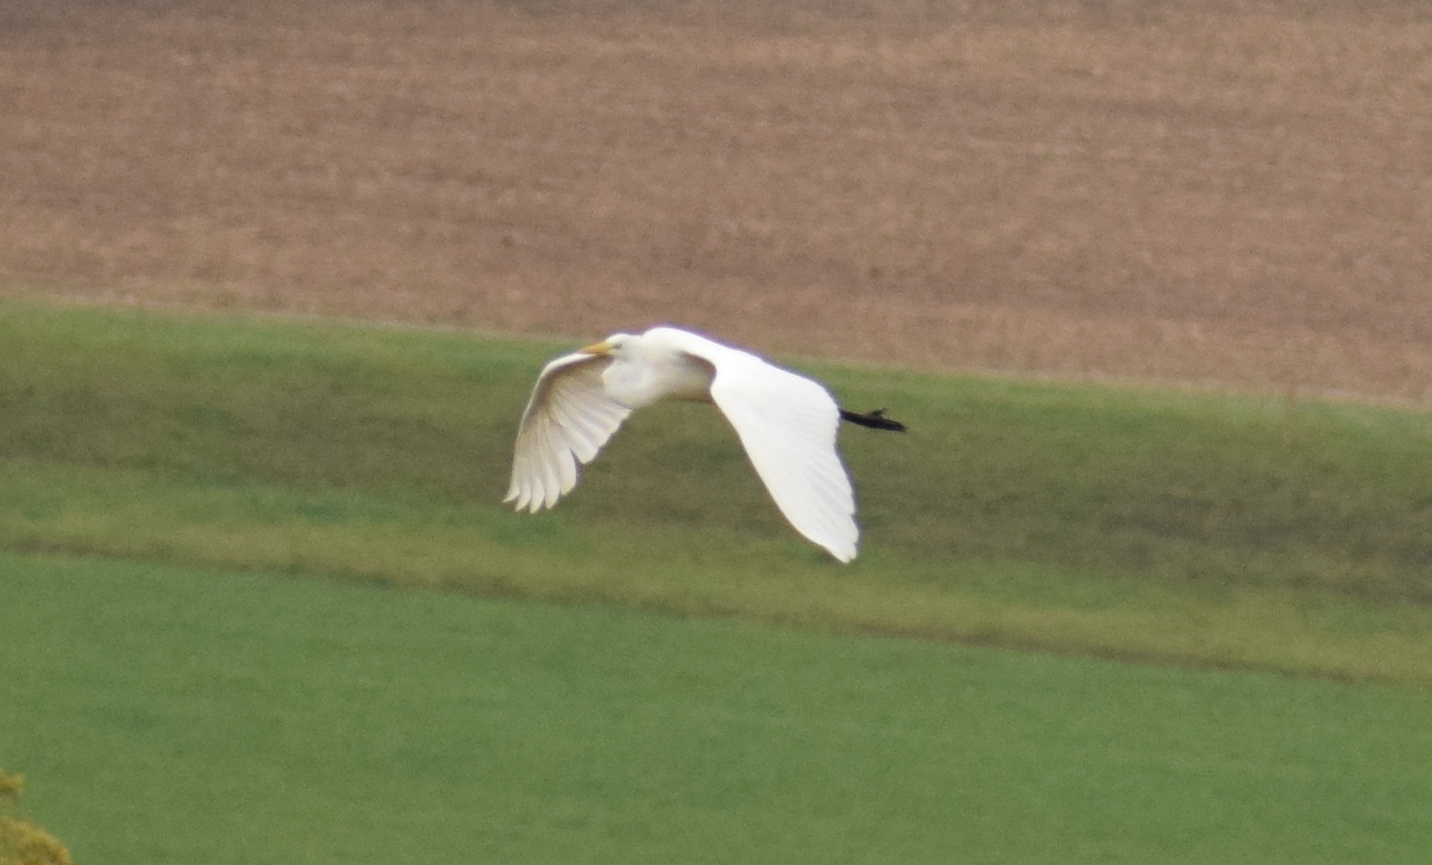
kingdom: Animalia
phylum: Chordata
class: Aves
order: Pelecaniformes
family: Ardeidae
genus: Ardea
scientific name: Ardea alba
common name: Great egret
